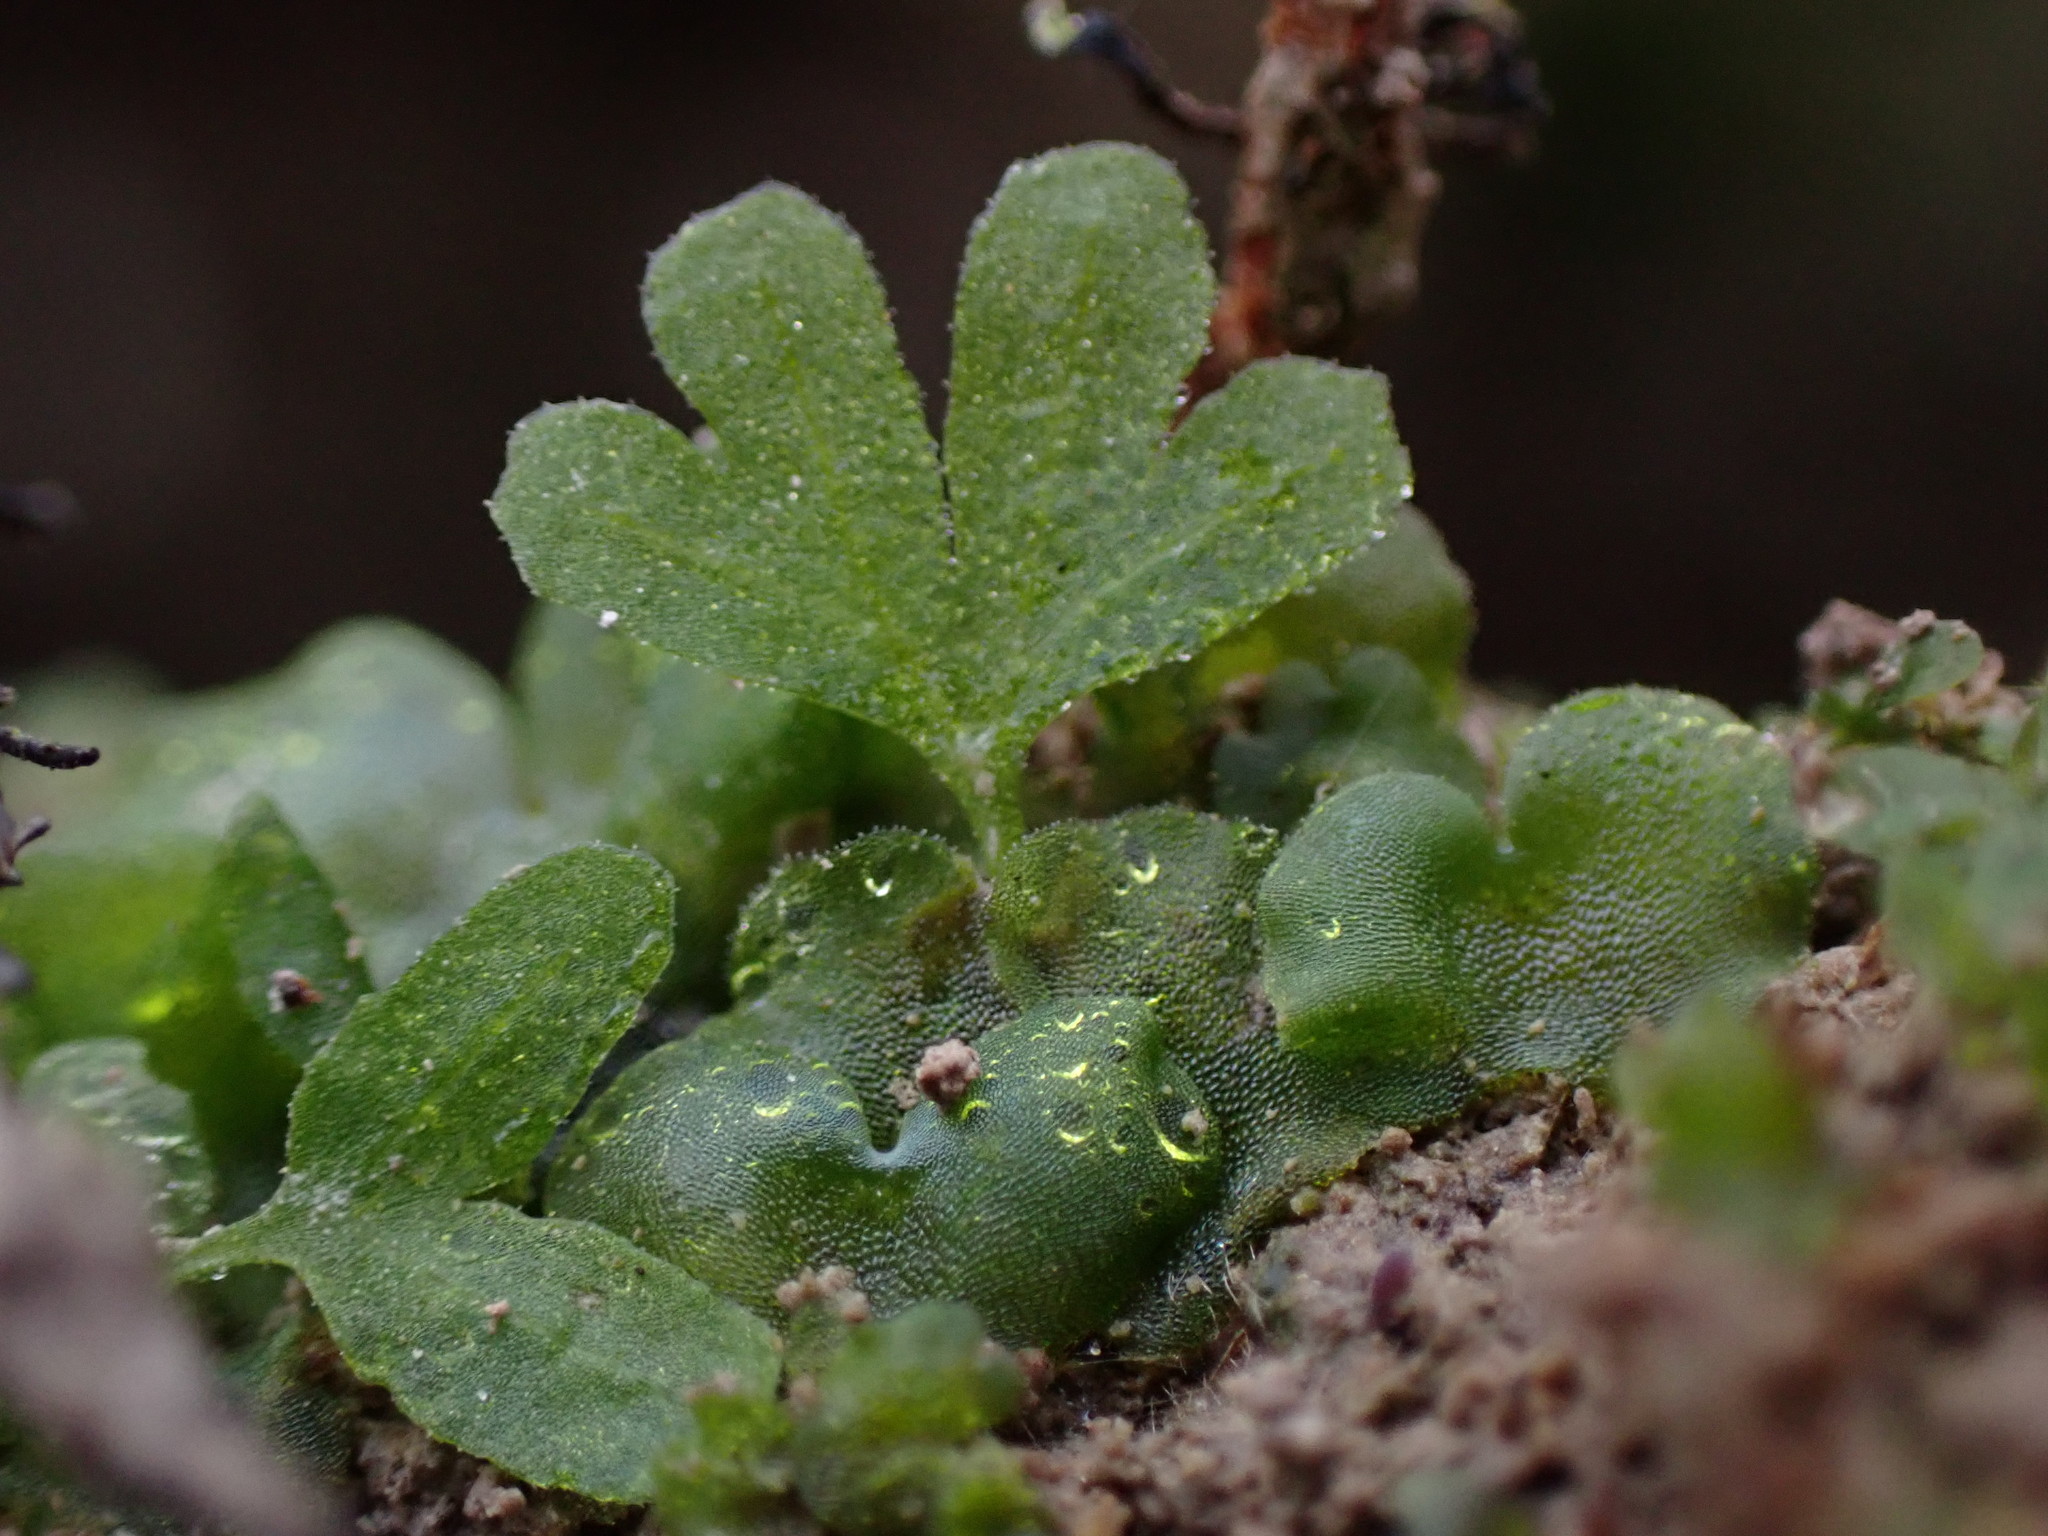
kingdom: Plantae
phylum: Tracheophyta
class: Polypodiopsida
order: Polypodiales
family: Athyriaceae
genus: Athyrium
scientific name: Athyrium filix-femina
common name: Lady fern
